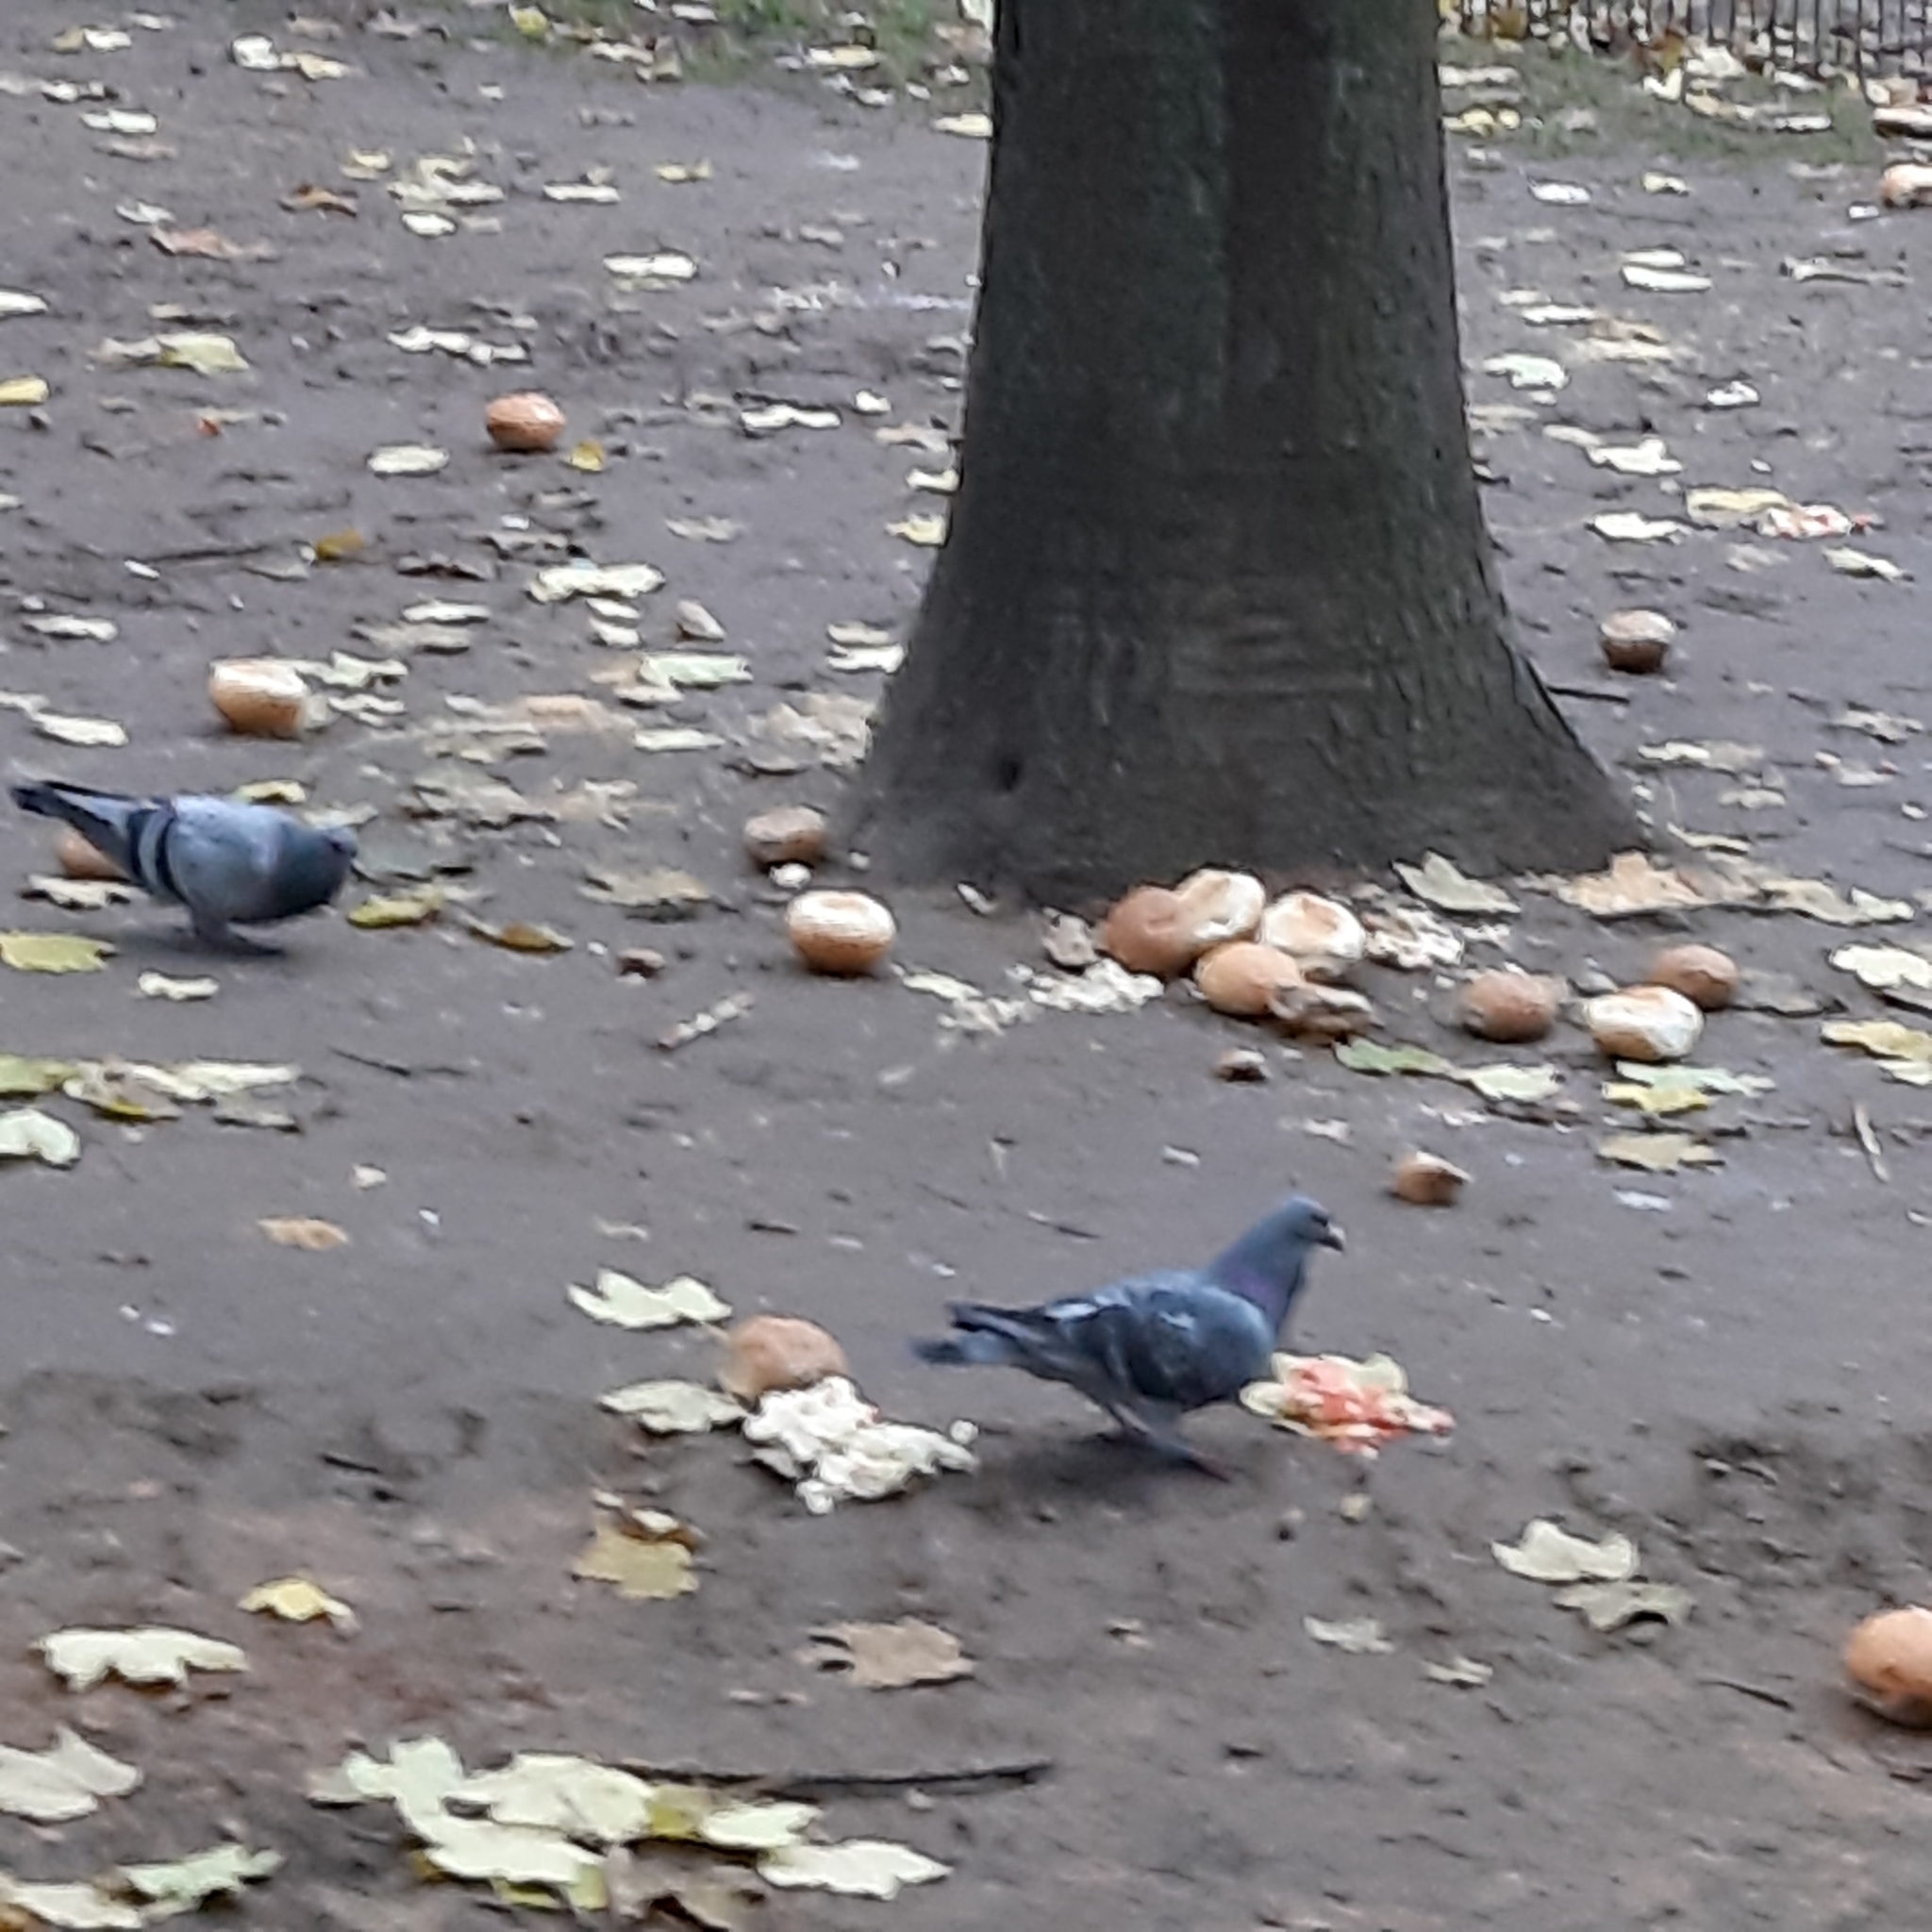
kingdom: Animalia
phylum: Chordata
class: Aves
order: Columbiformes
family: Columbidae
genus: Columba
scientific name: Columba livia
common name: Rock pigeon
